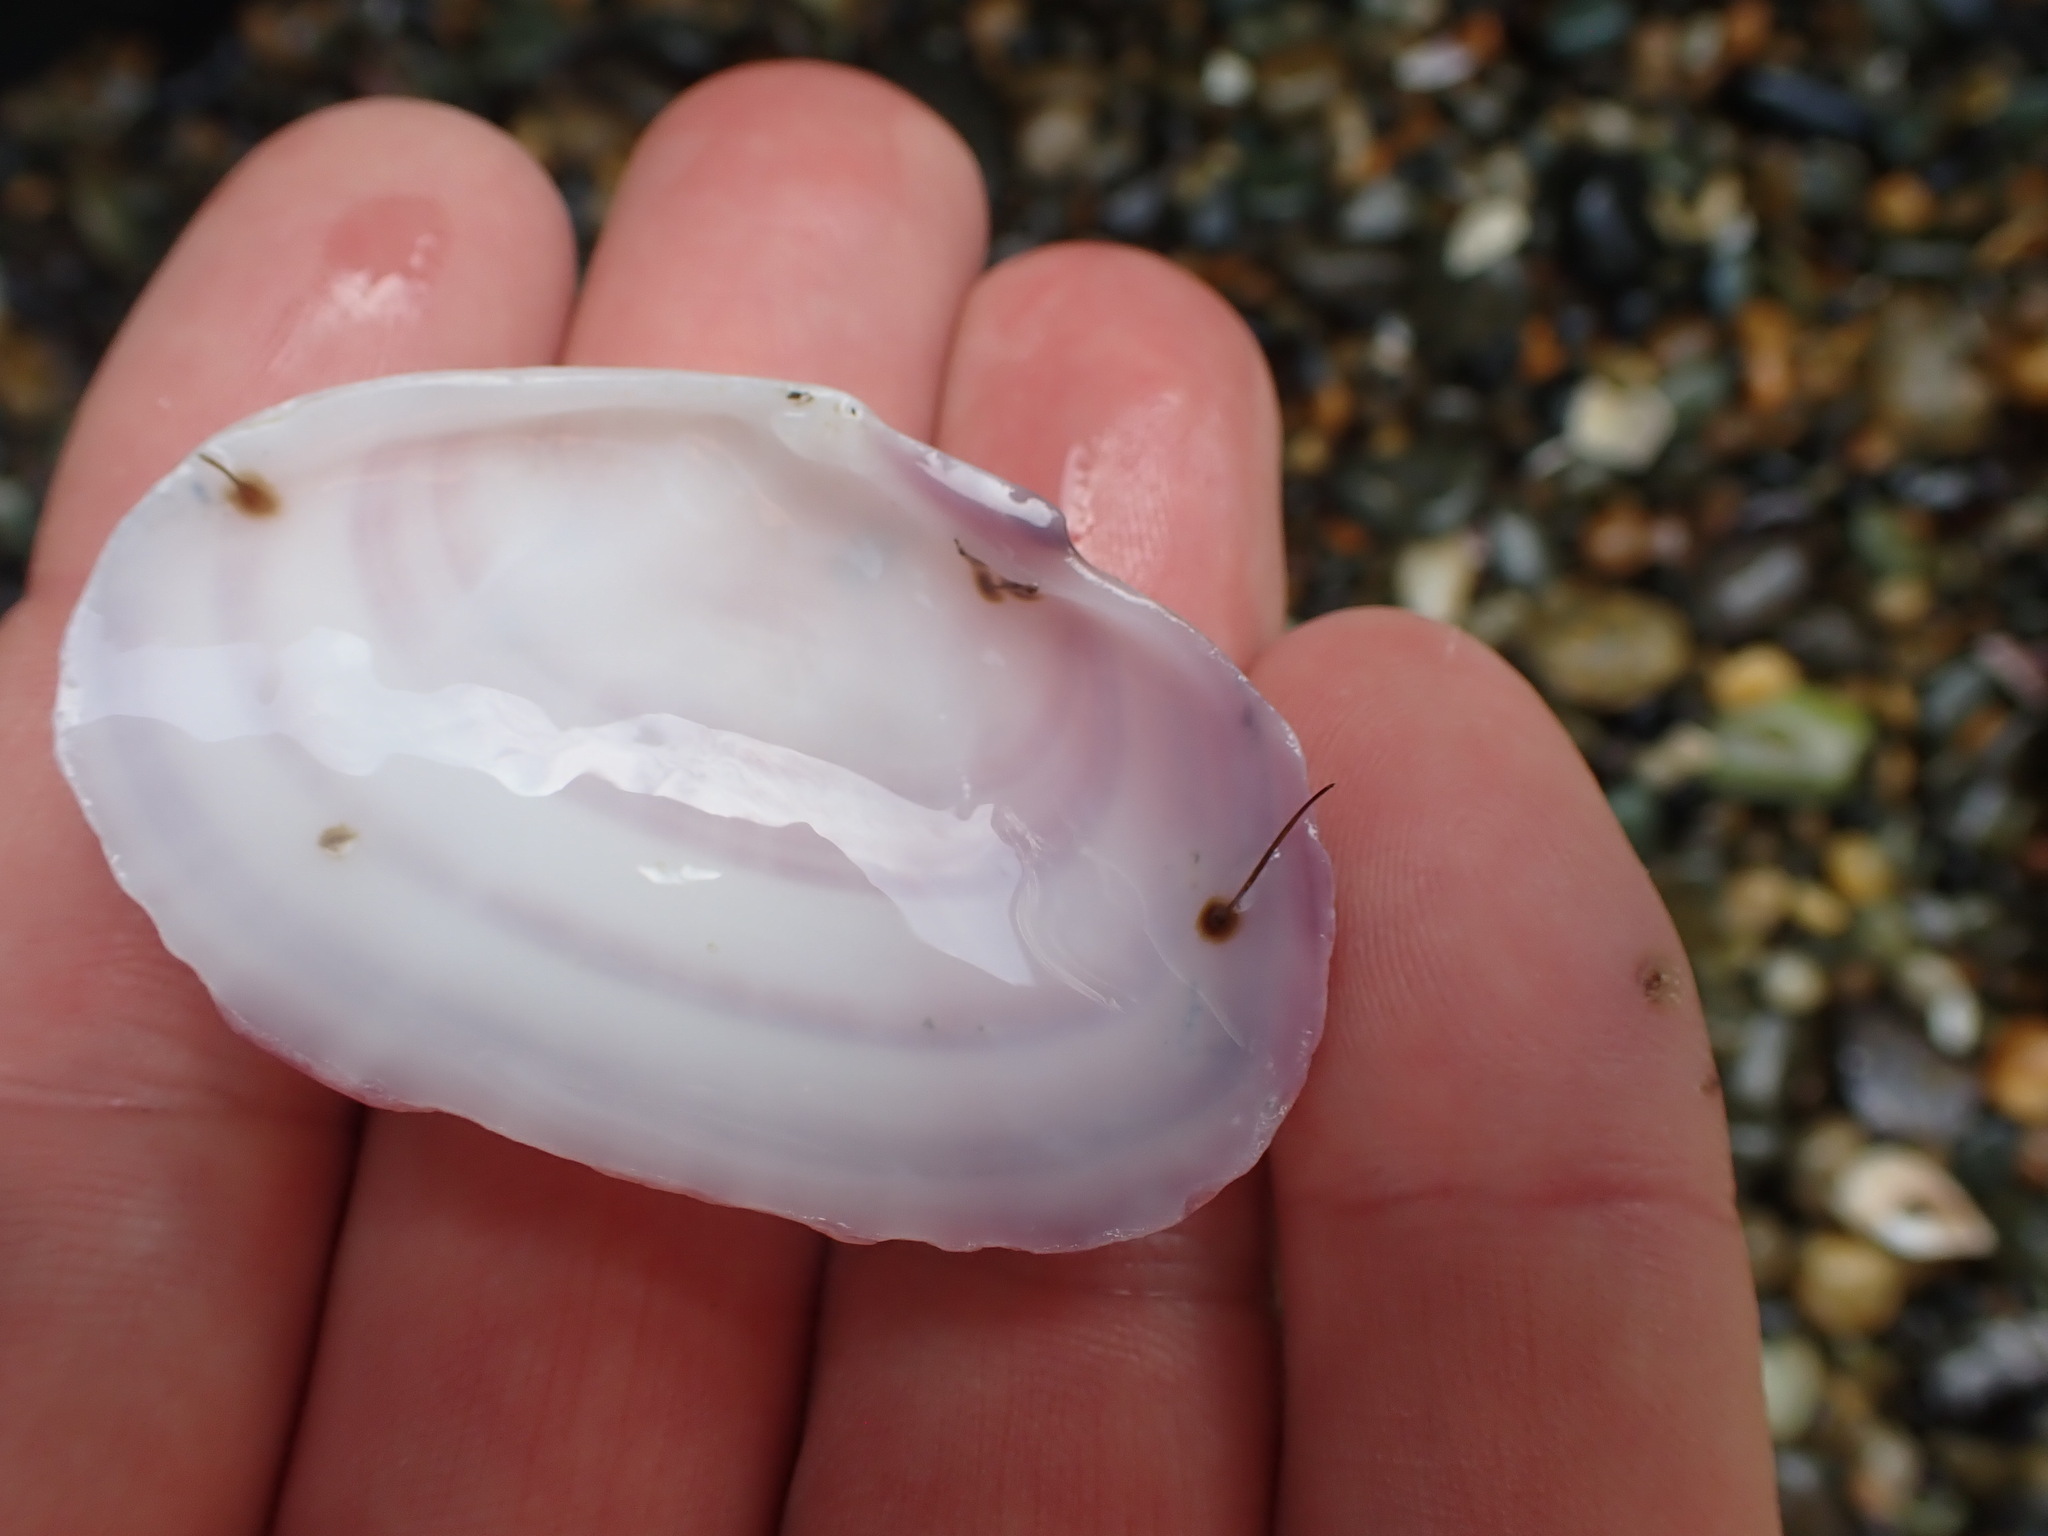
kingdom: Animalia
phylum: Mollusca
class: Bivalvia
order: Cardiida
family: Psammobiidae
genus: Gari
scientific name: Gari stangeri
